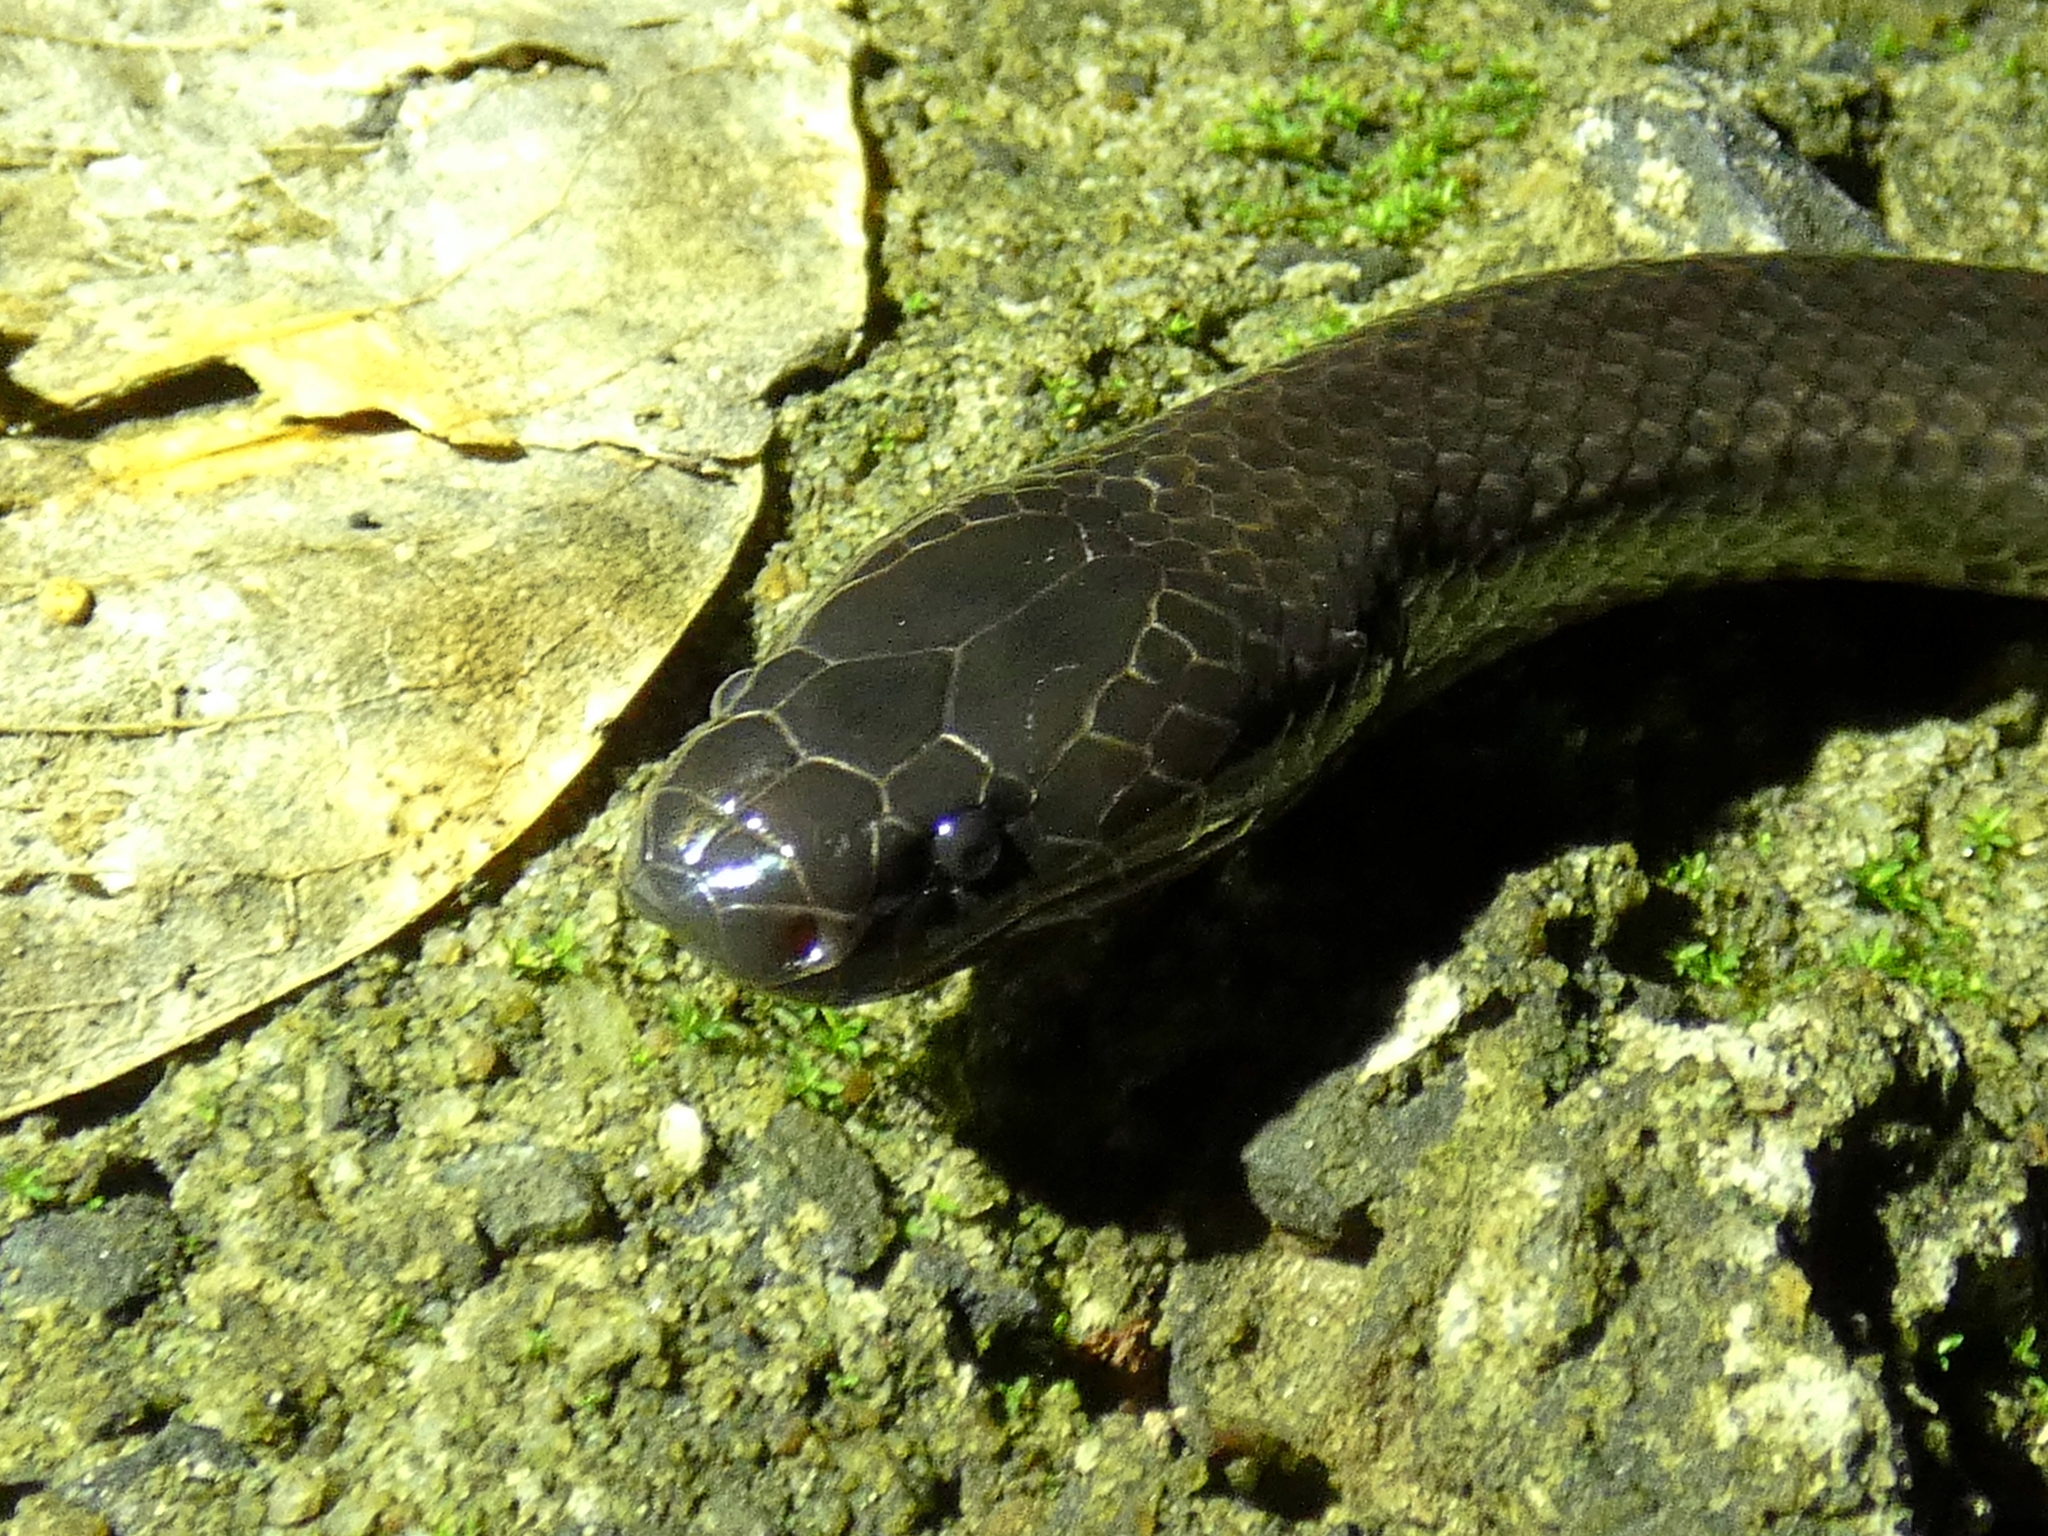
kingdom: Animalia
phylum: Chordata
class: Squamata
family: Elapidae
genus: Cryptophis
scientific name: Cryptophis nigrescens
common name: Eastern small-eyed snake
